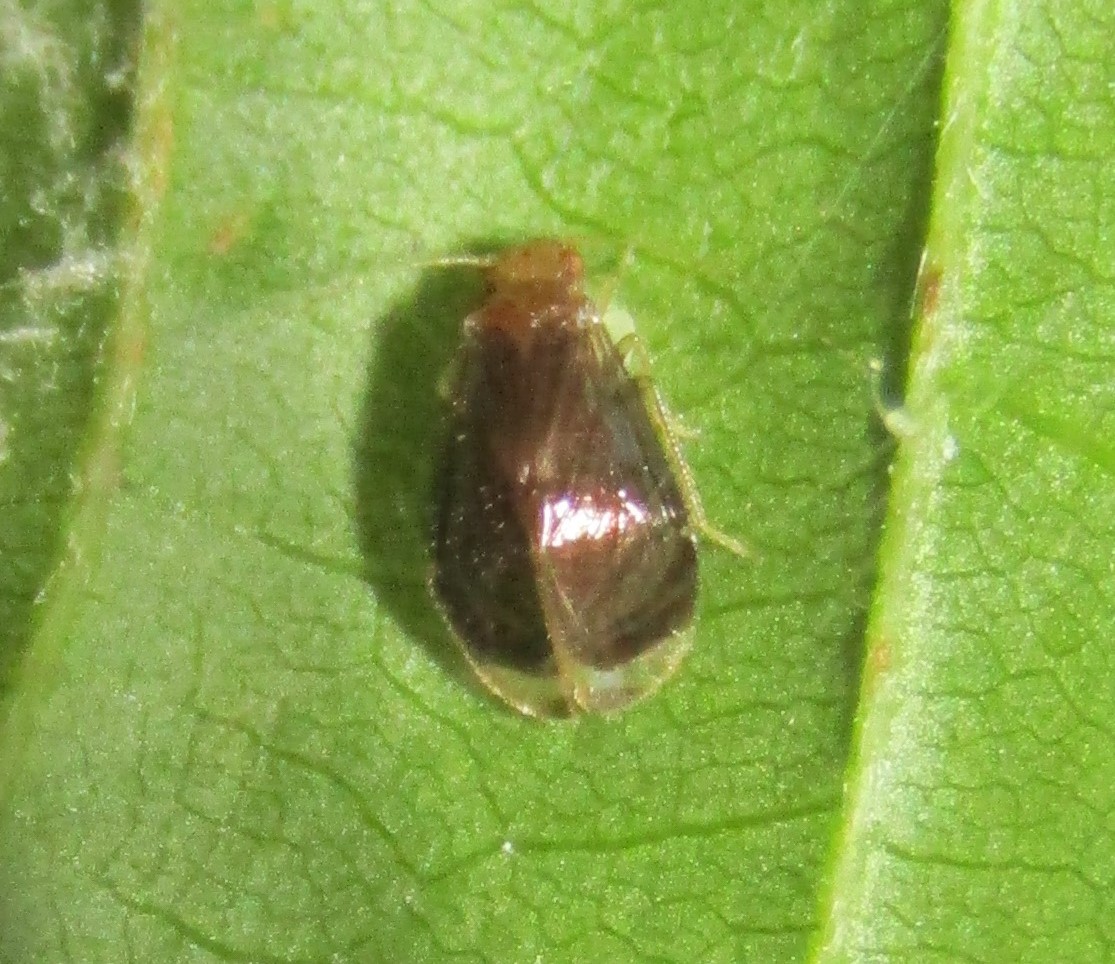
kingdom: Animalia
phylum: Arthropoda
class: Insecta
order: Psocodea
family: Amphipsocidae
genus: Polypsocus
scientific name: Polypsocus corruptus
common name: Corrupt barklouse
